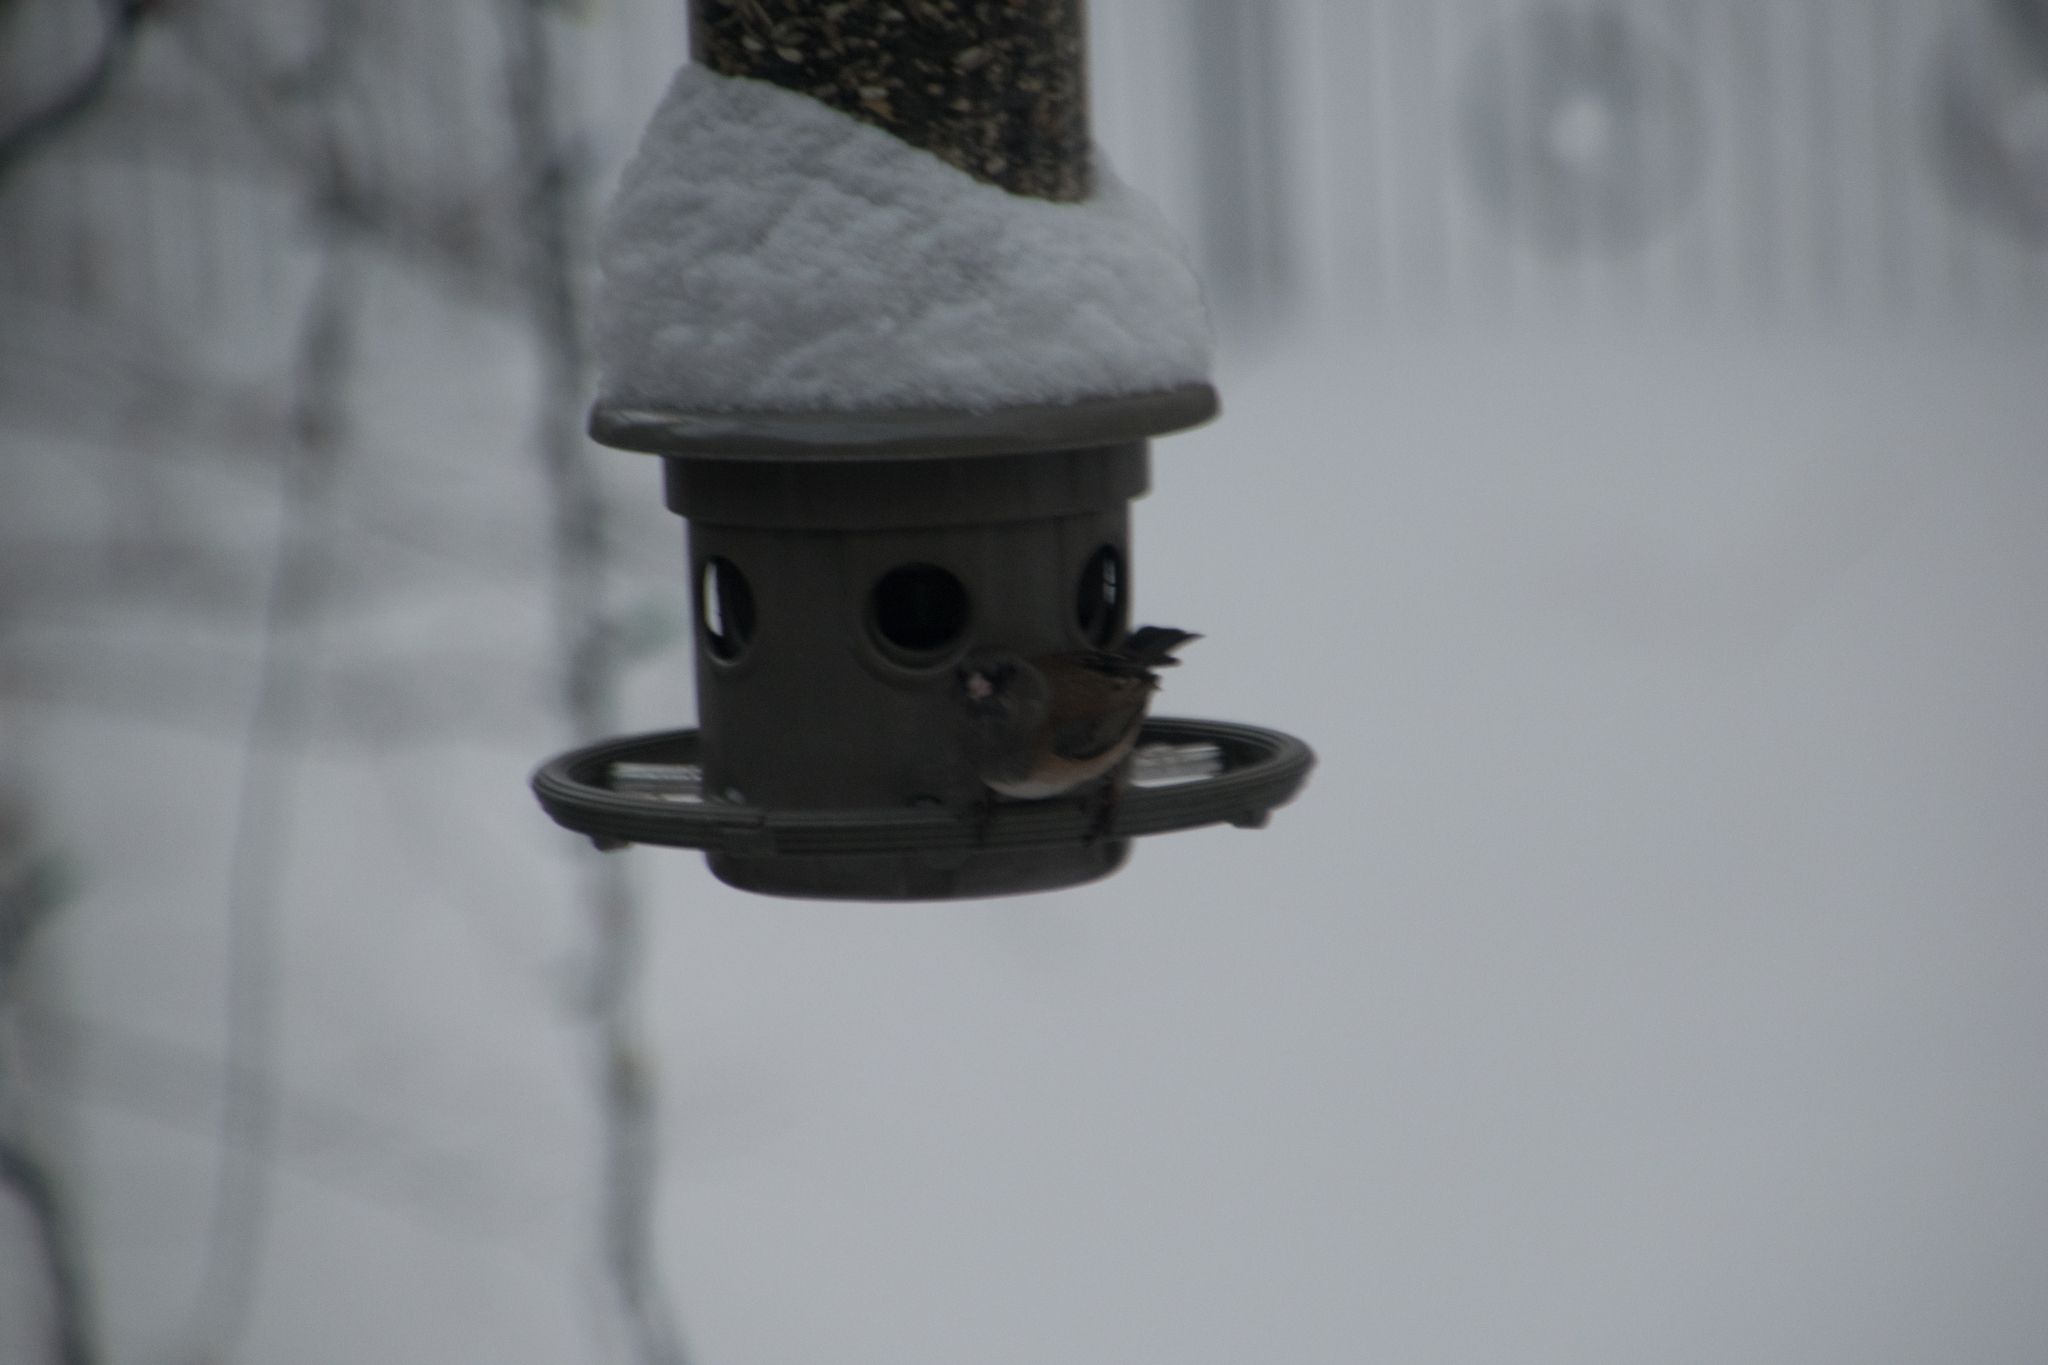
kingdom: Animalia
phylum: Chordata
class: Aves
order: Passeriformes
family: Passerellidae
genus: Junco
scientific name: Junco hyemalis
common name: Dark-eyed junco
